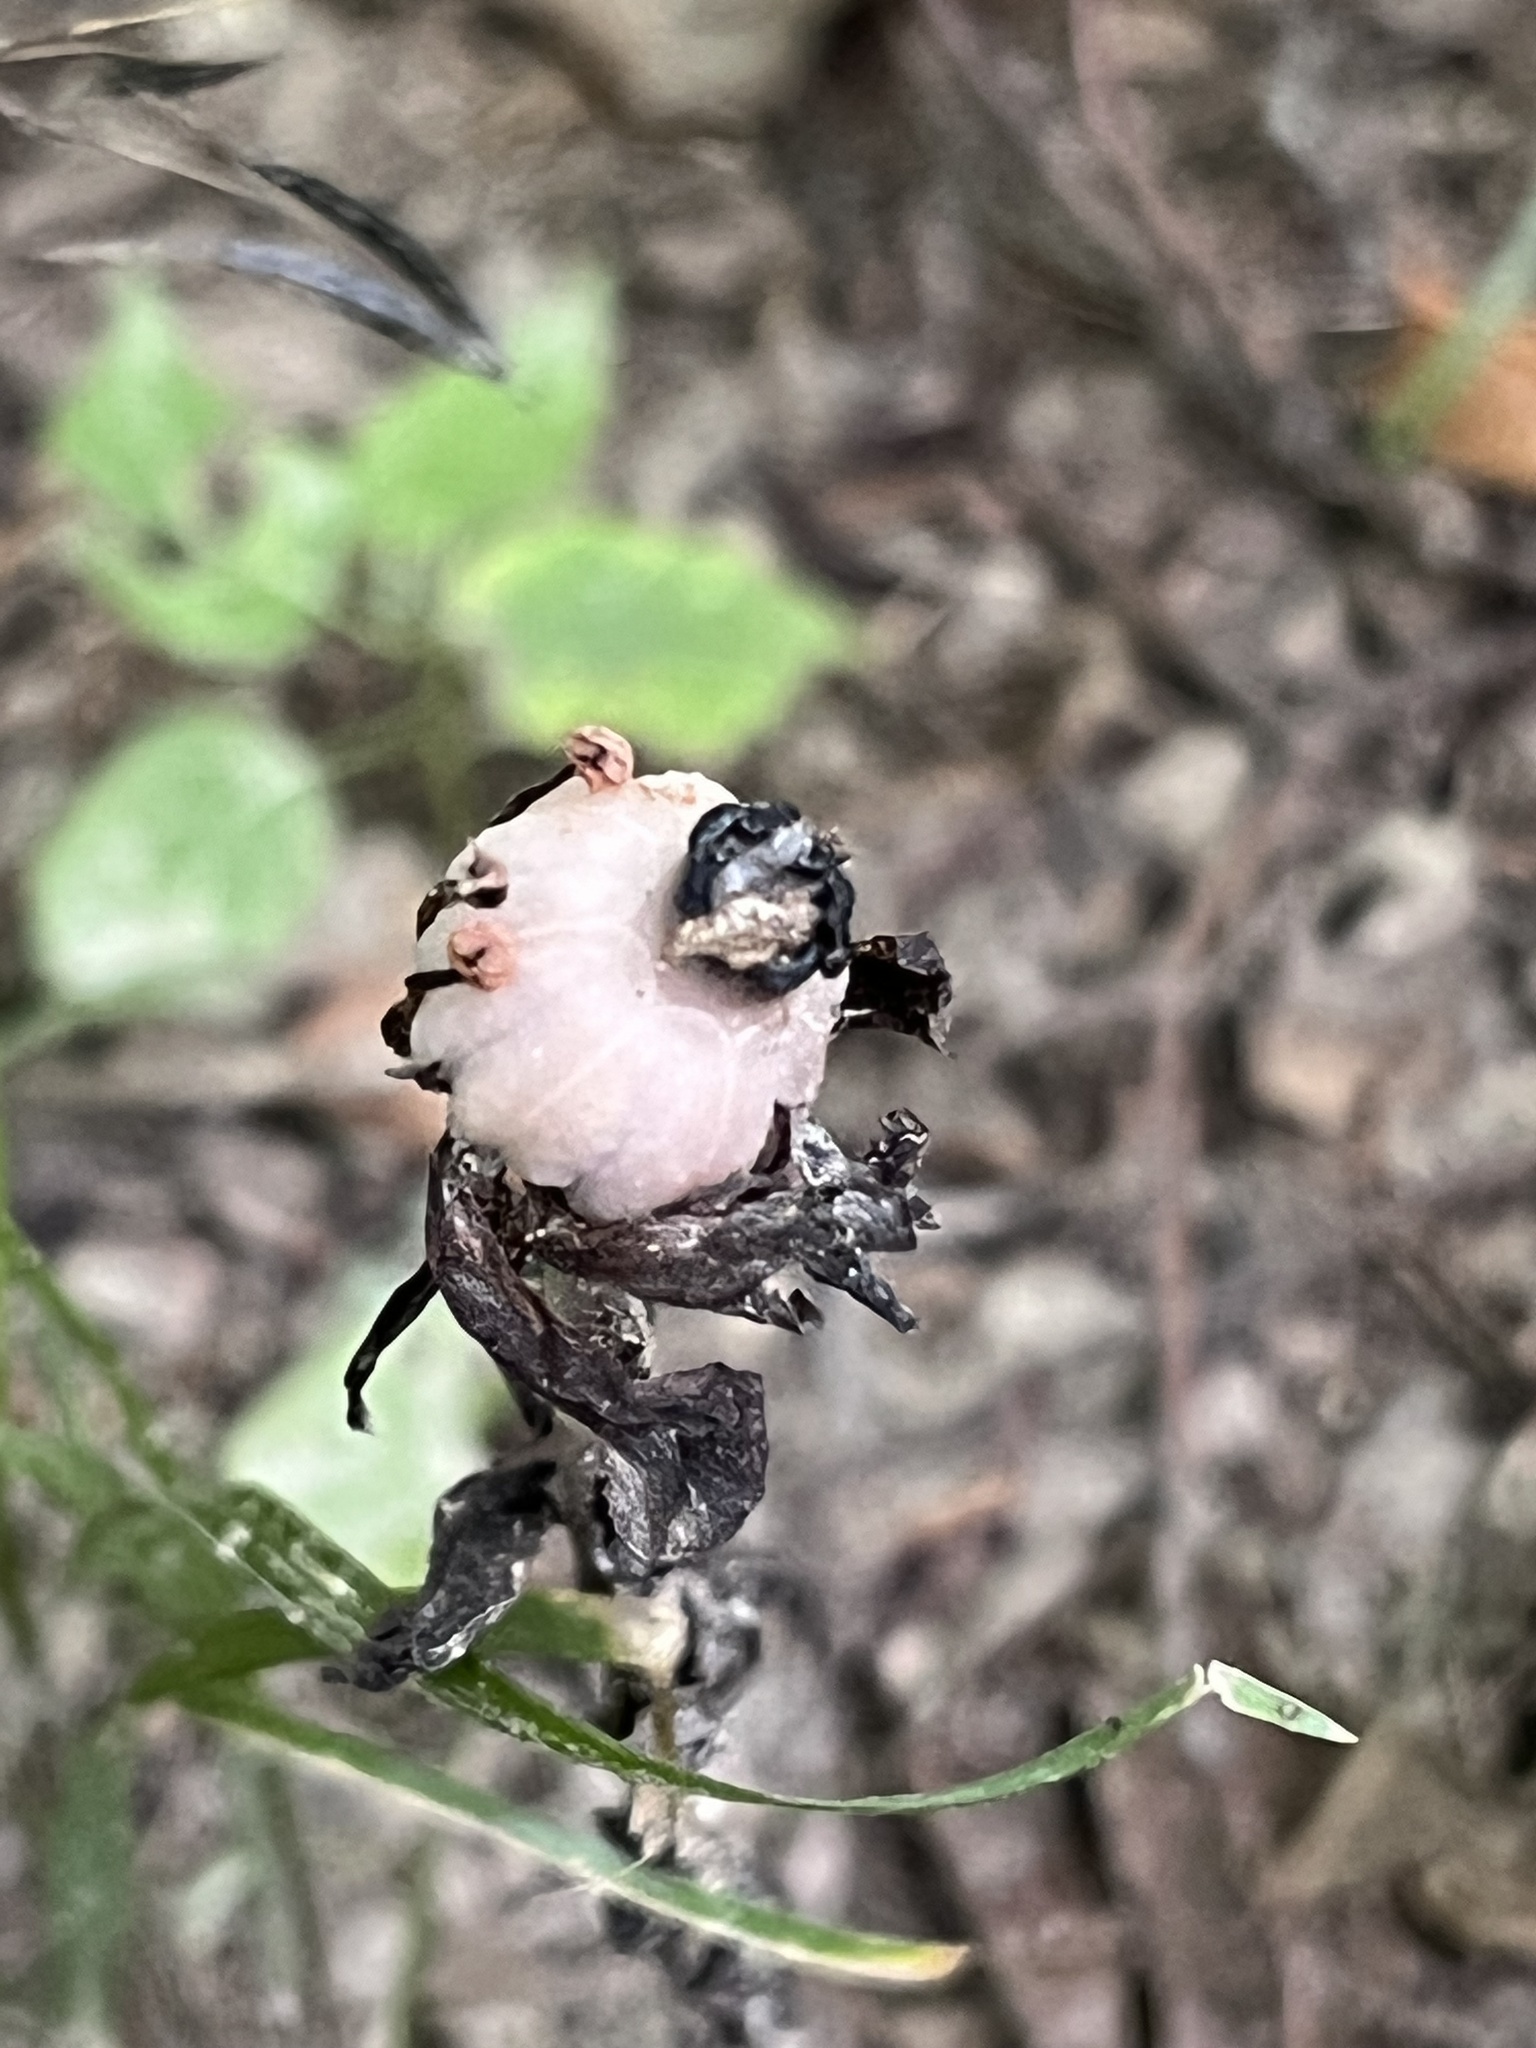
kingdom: Plantae
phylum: Tracheophyta
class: Magnoliopsida
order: Ericales
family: Ericaceae
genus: Monotropa
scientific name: Monotropa uniflora
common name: Convulsion root
